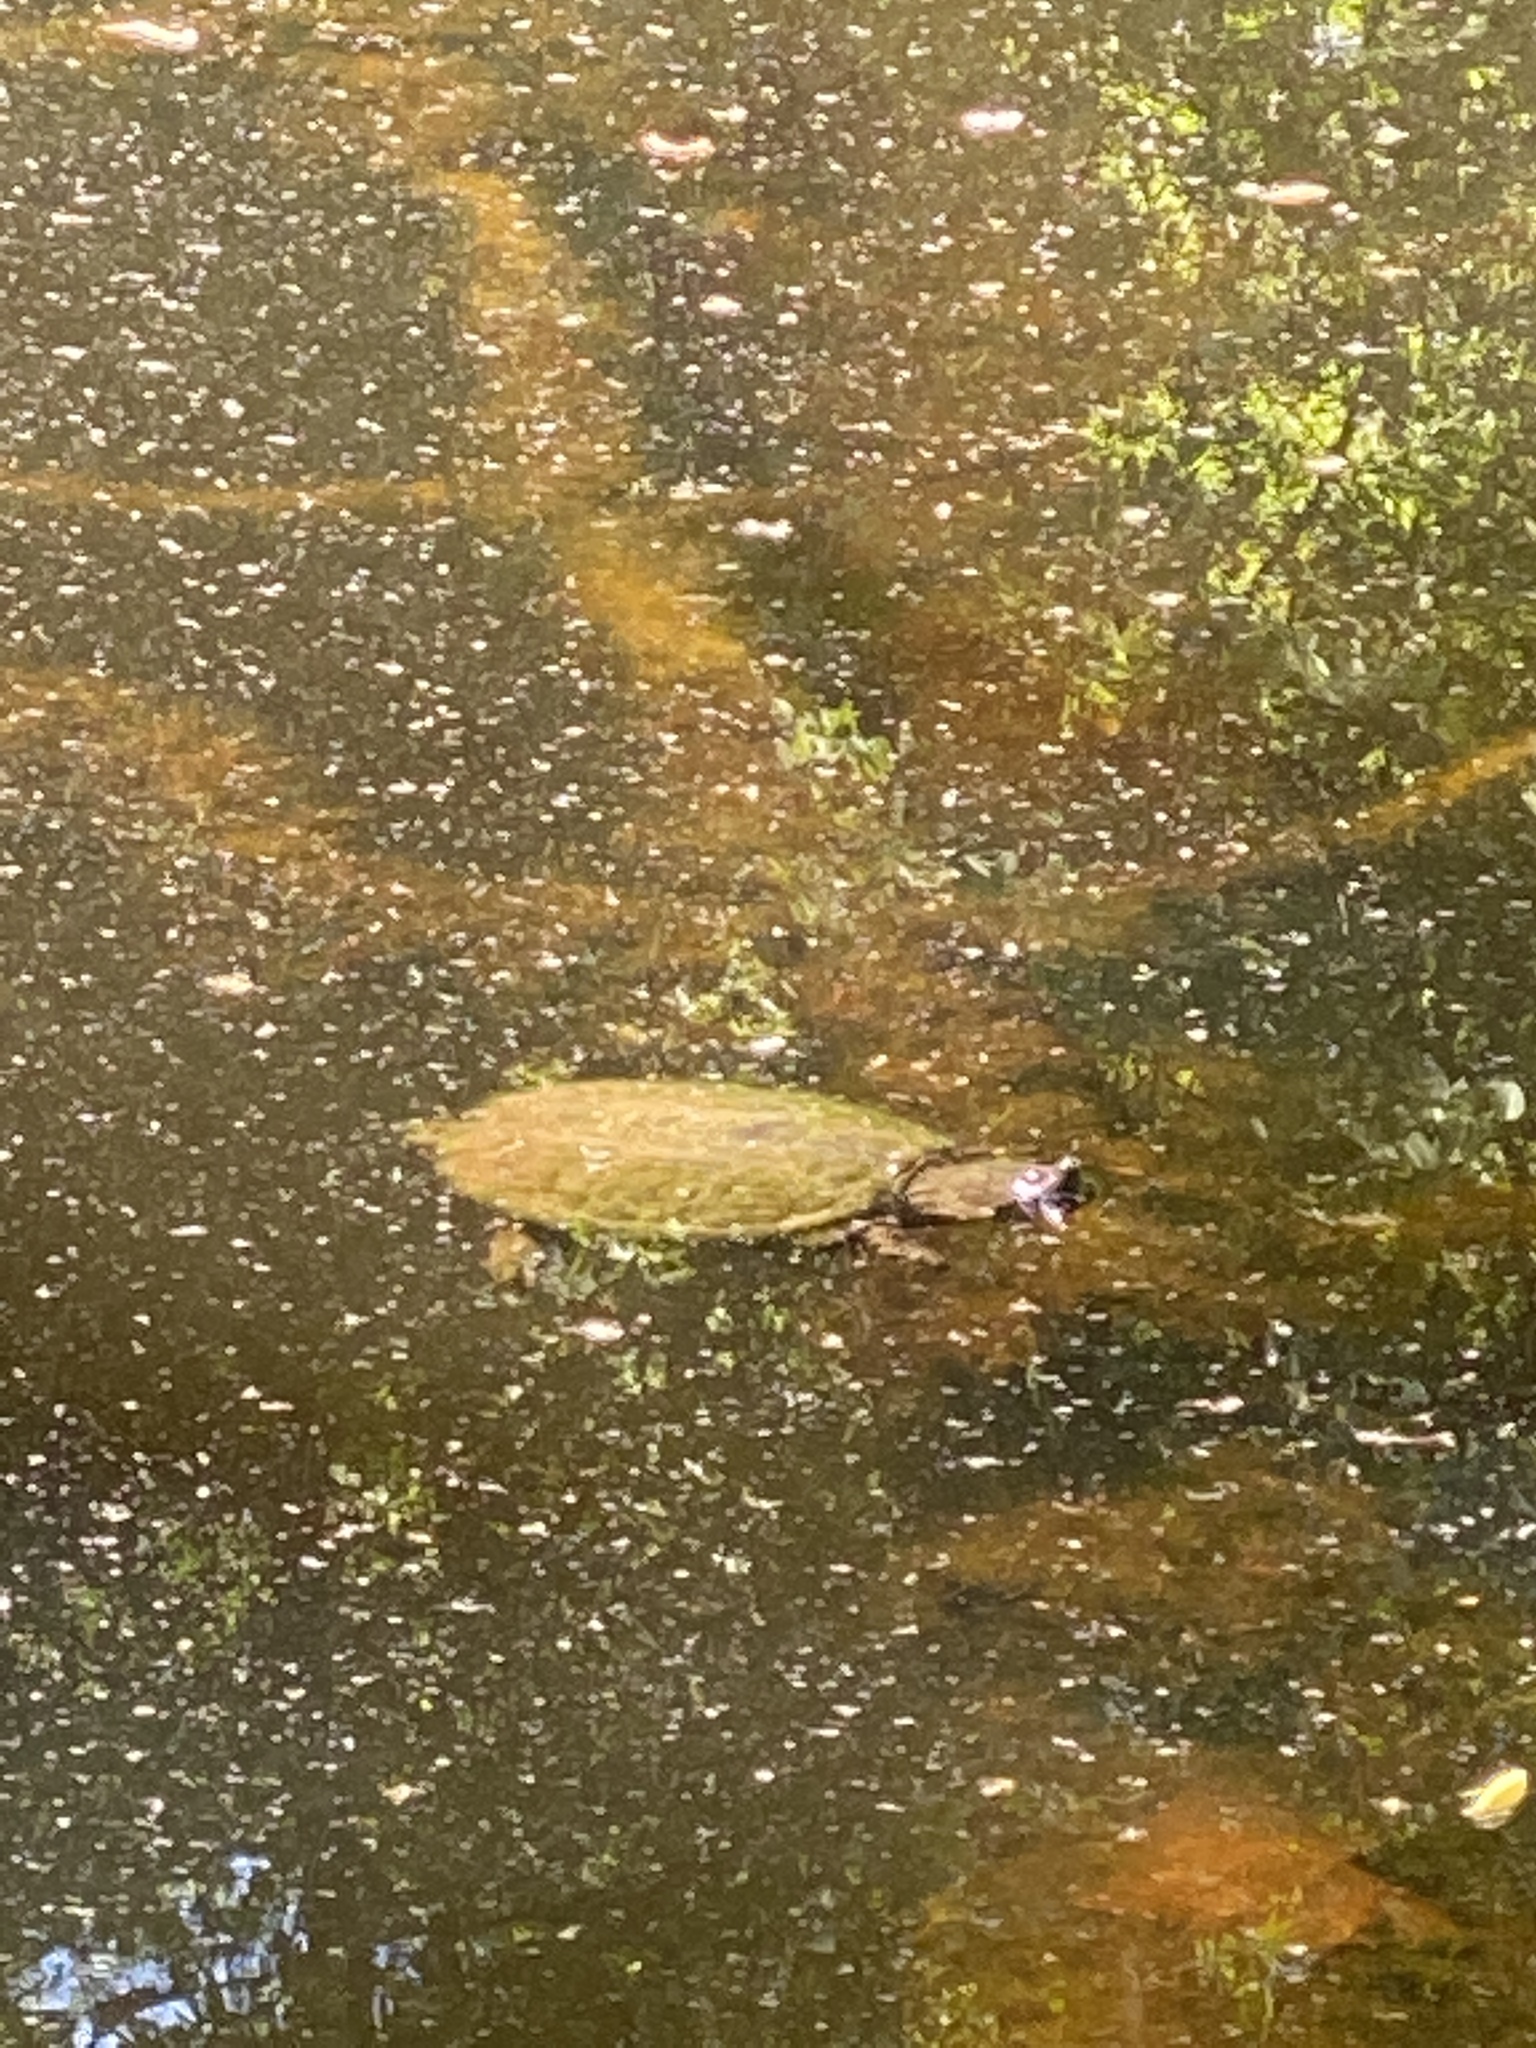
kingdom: Animalia
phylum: Chordata
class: Testudines
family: Chelydridae
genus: Chelydra
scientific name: Chelydra serpentina
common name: Common snapping turtle
